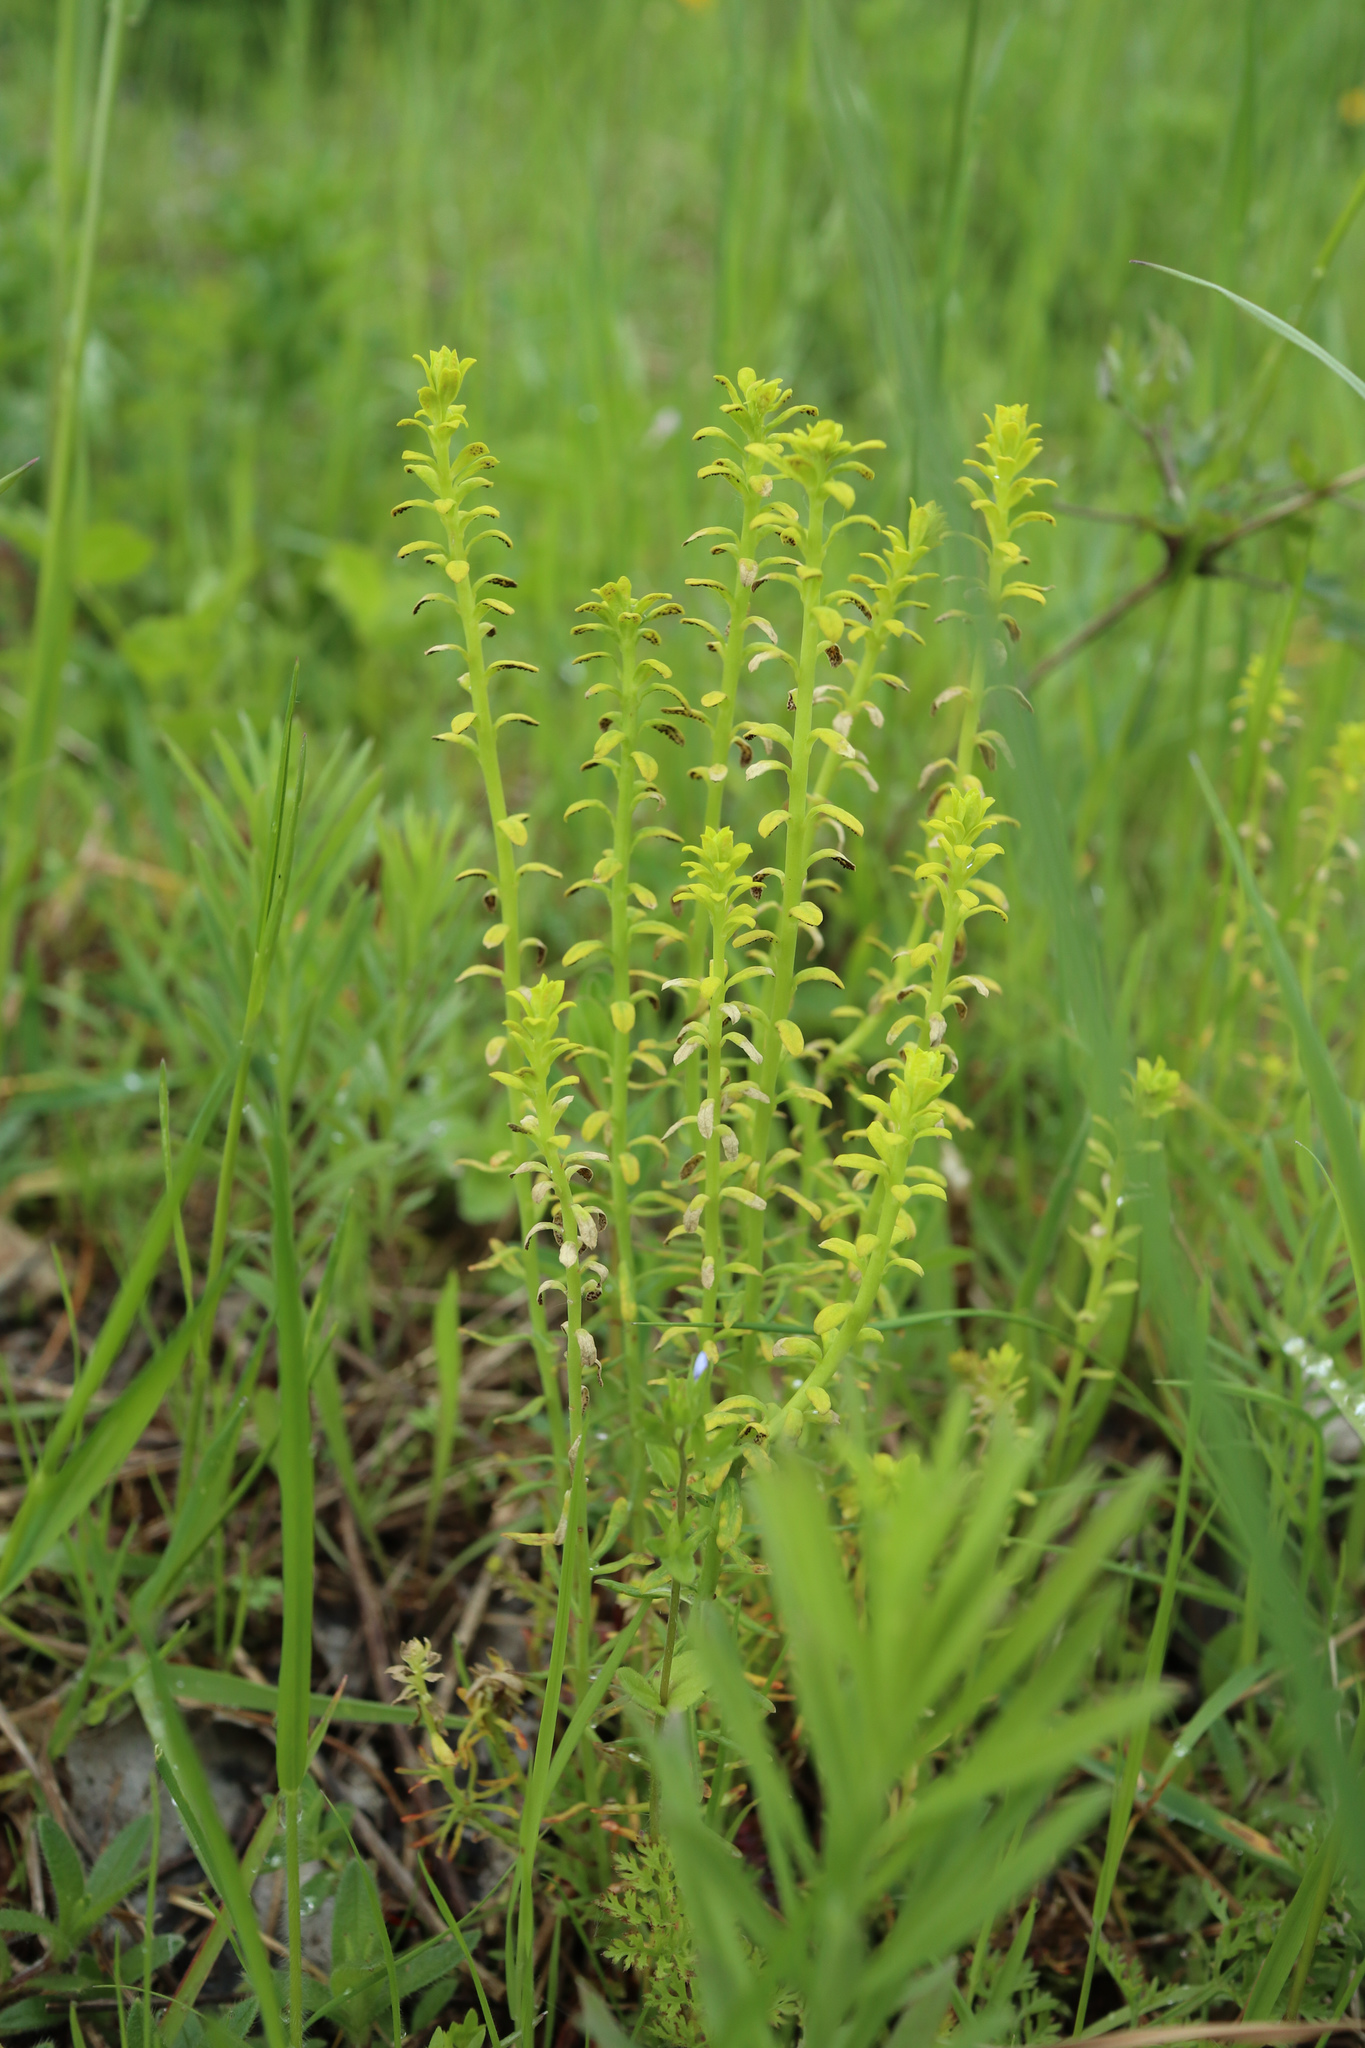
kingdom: Plantae
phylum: Tracheophyta
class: Magnoliopsida
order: Malpighiales
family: Euphorbiaceae
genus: Euphorbia
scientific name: Euphorbia cyparissias
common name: Cypress spurge
